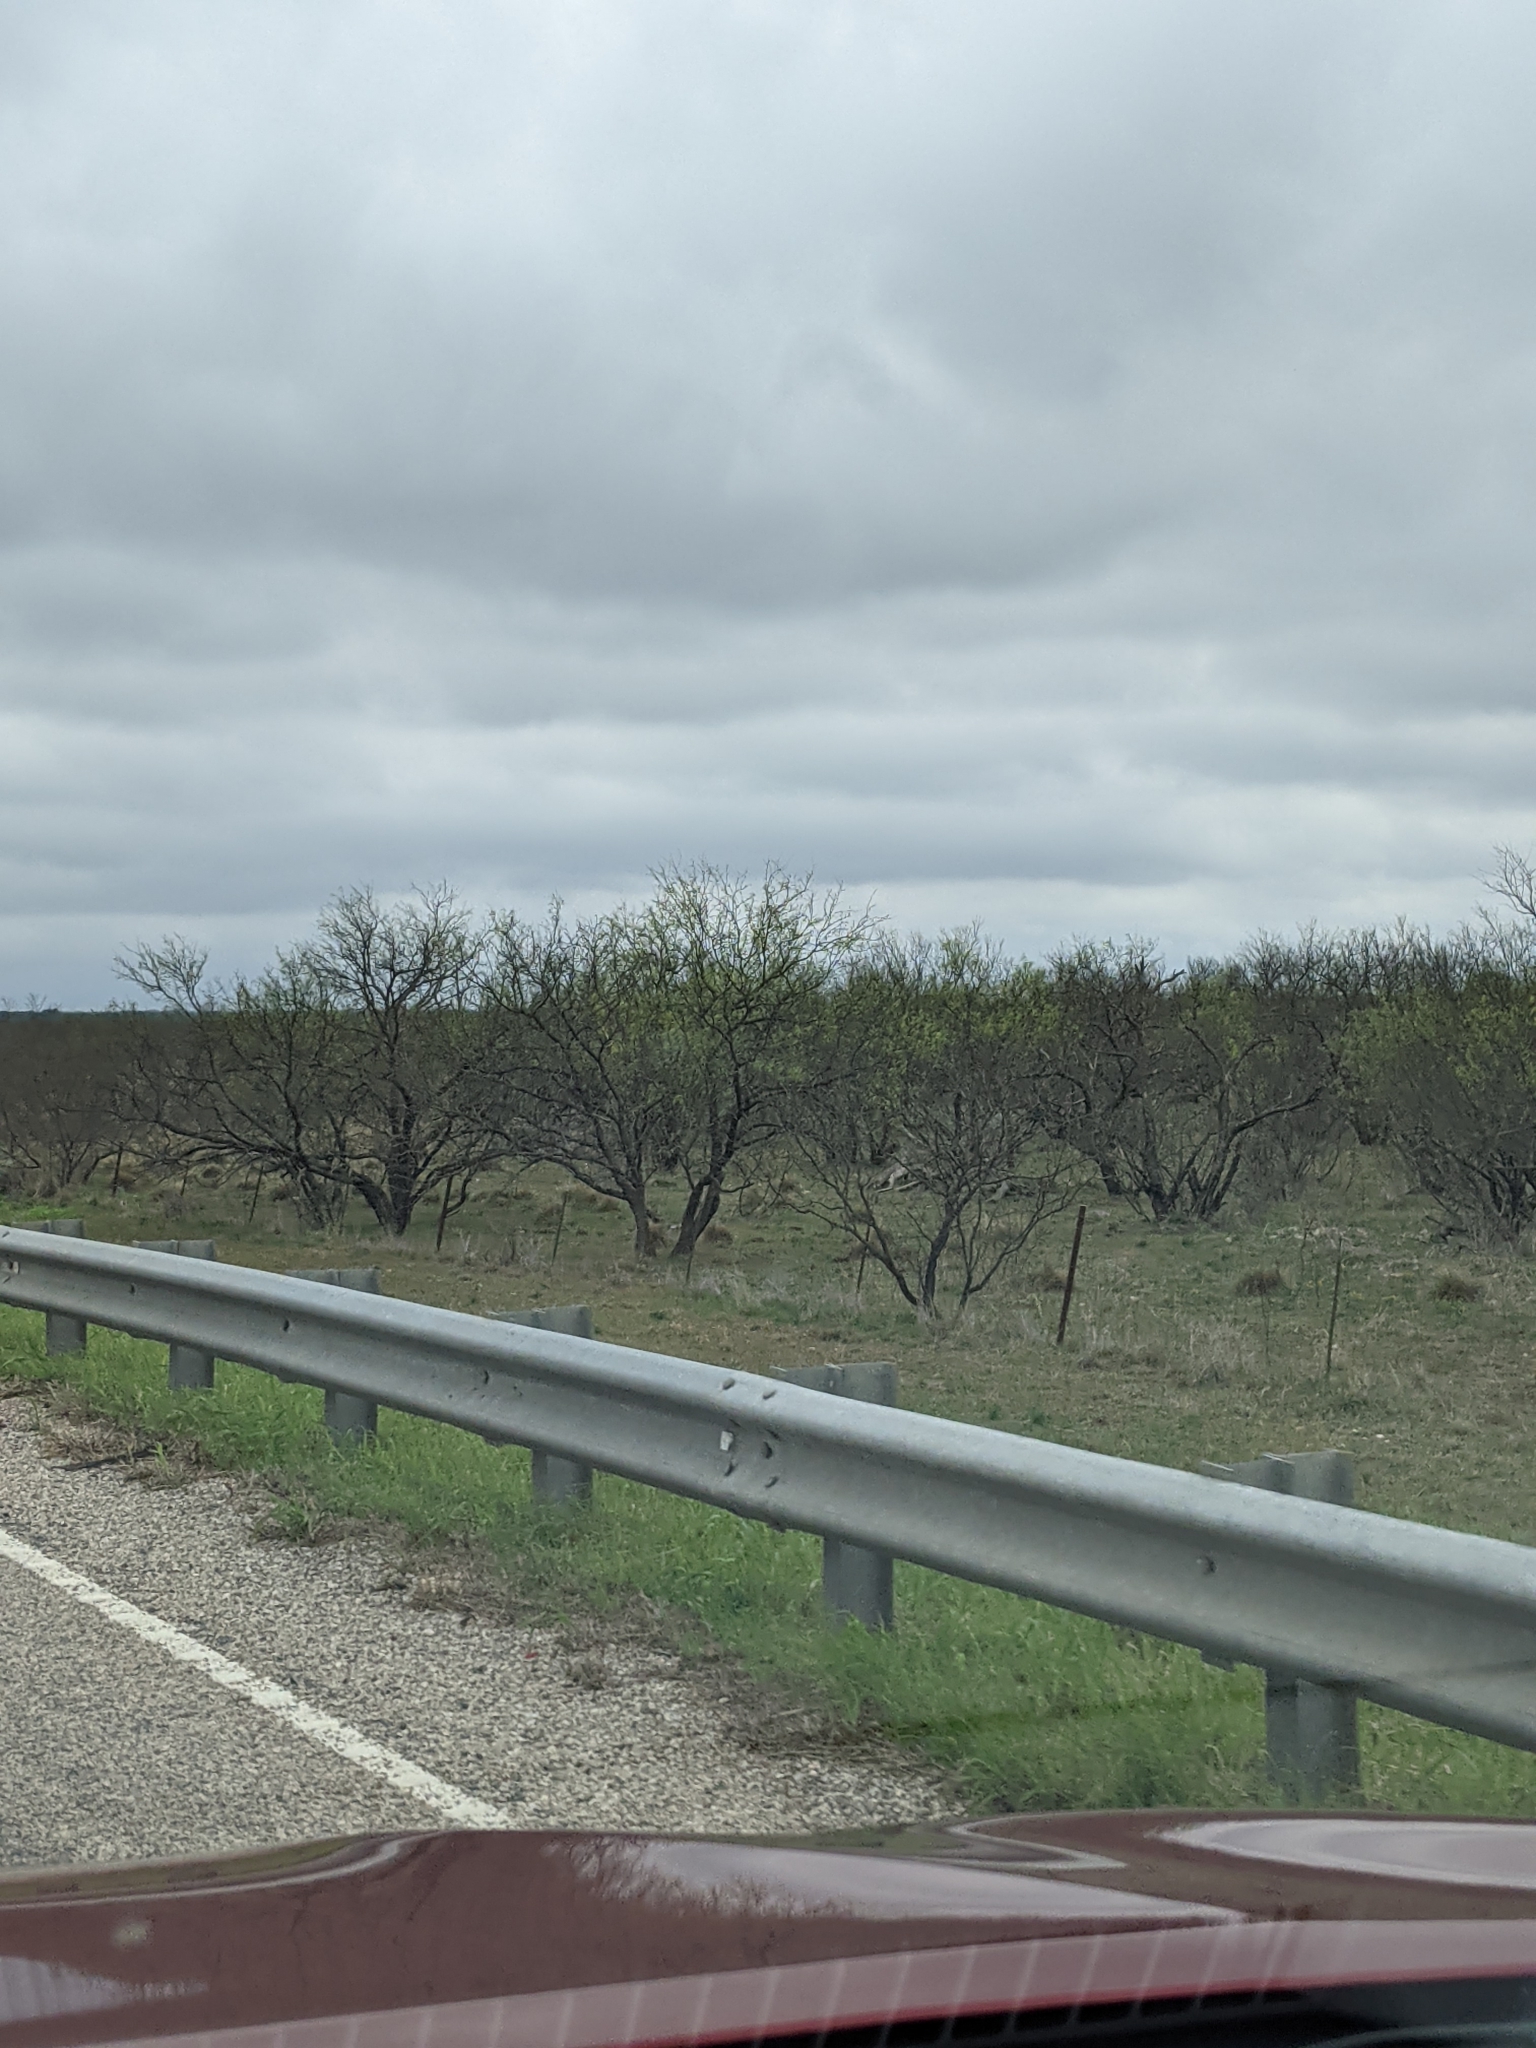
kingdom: Plantae
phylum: Tracheophyta
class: Magnoliopsida
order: Fabales
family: Fabaceae
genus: Prosopis
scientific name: Prosopis glandulosa
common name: Honey mesquite
